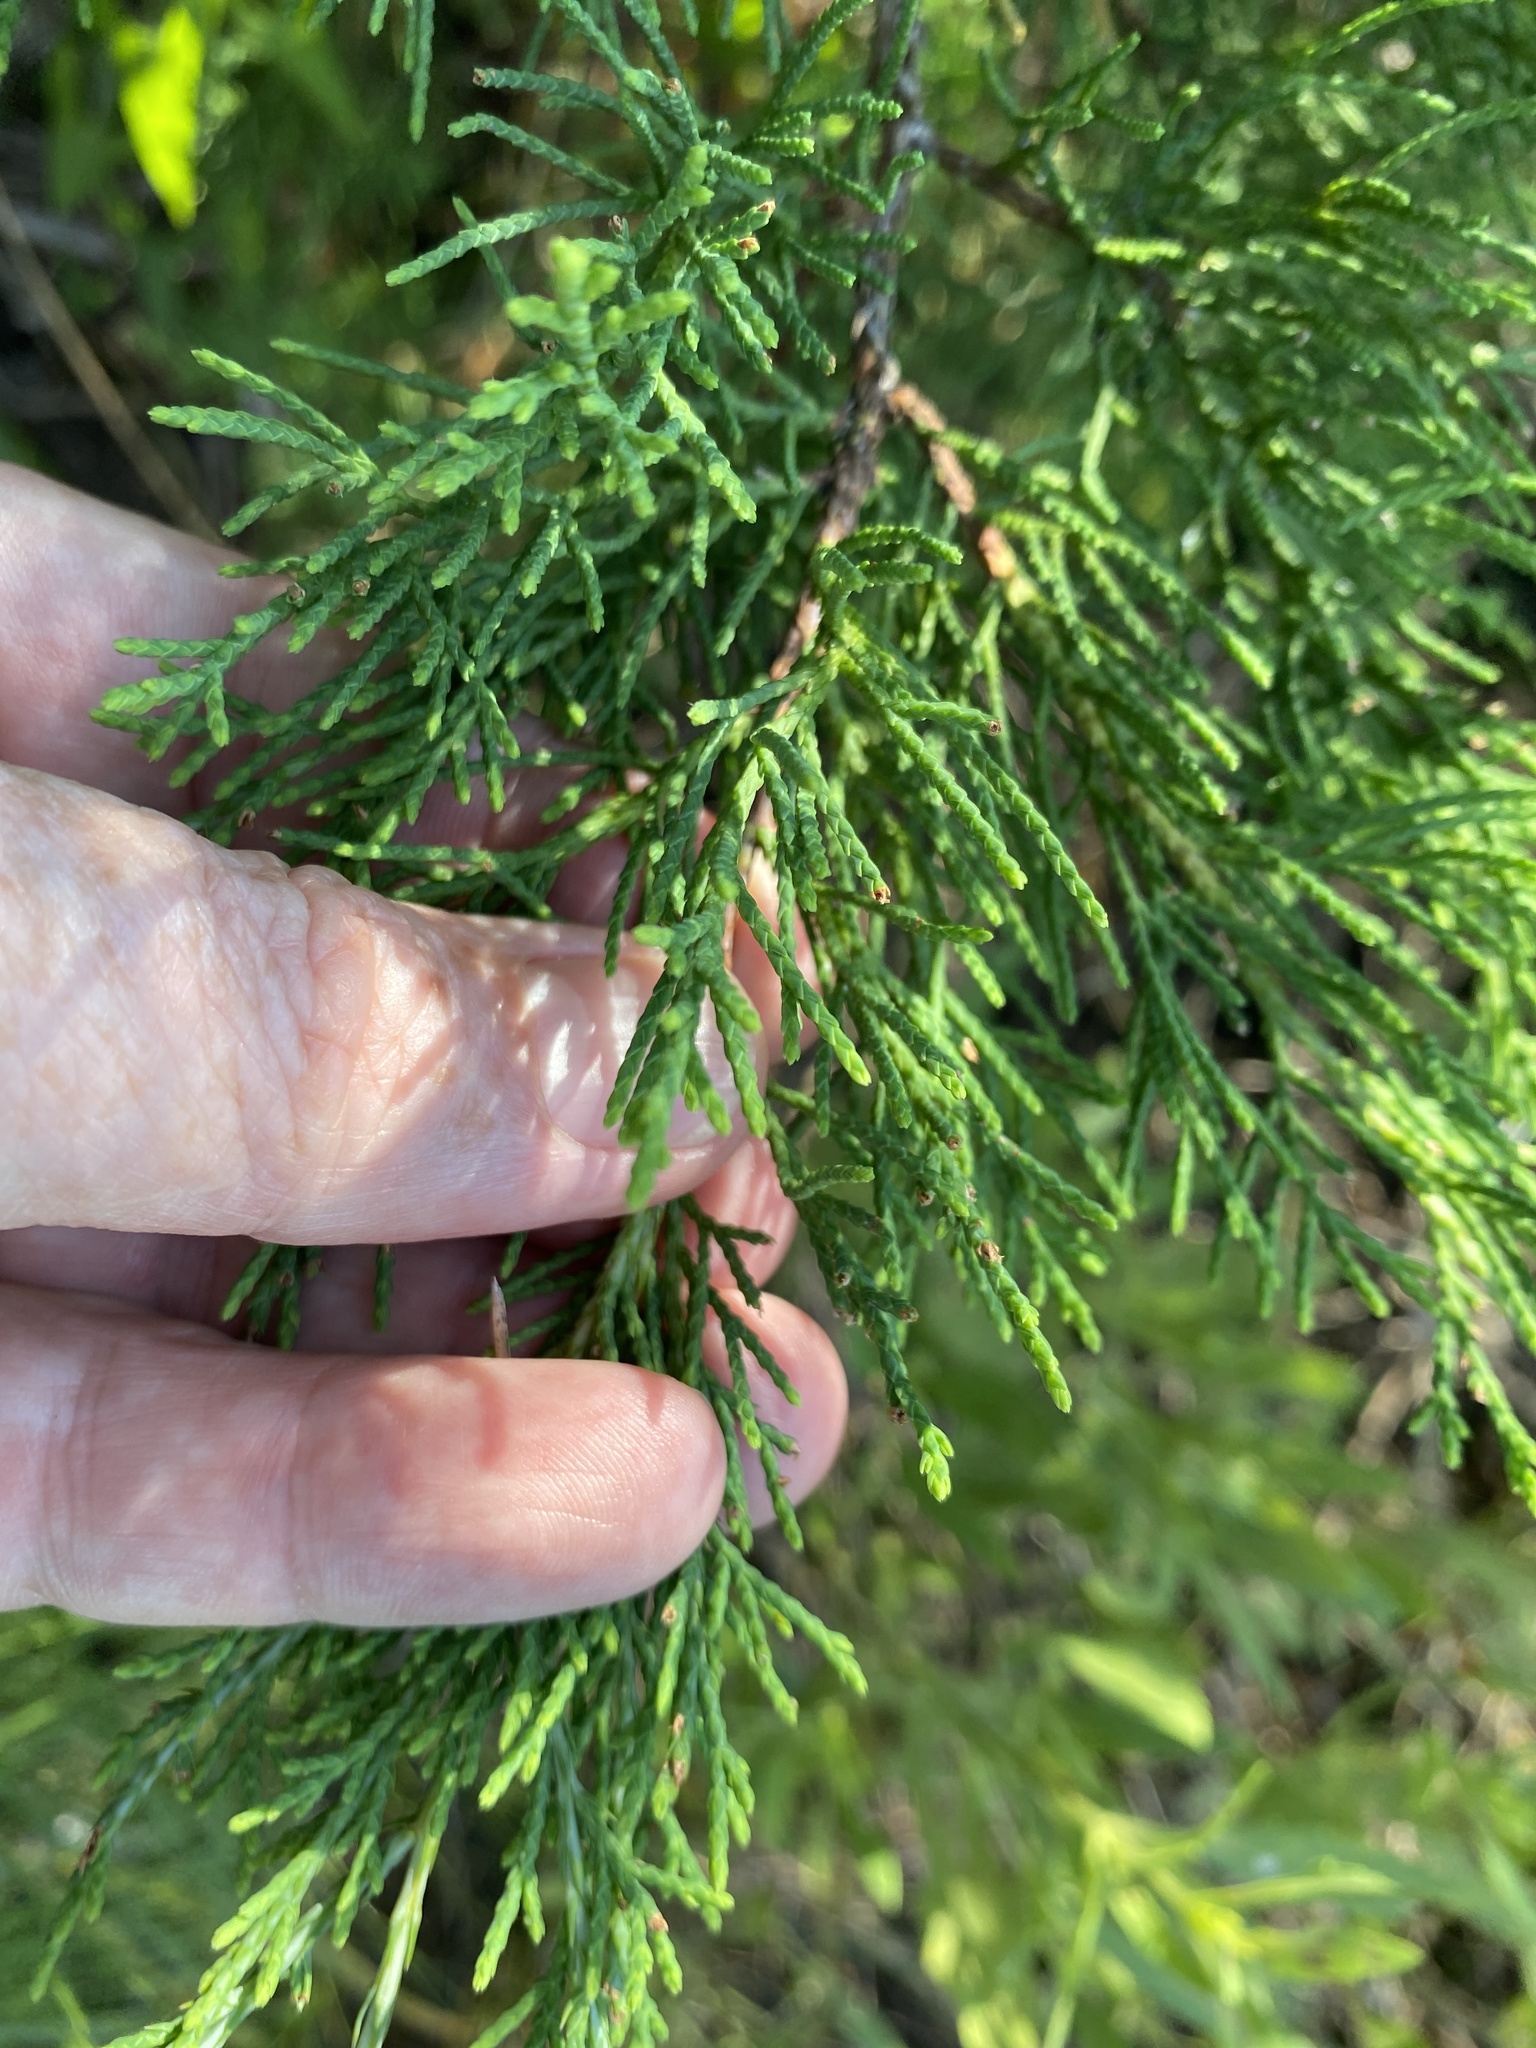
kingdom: Plantae
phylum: Tracheophyta
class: Pinopsida
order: Pinales
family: Cupressaceae
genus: Juniperus
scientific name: Juniperus virginiana
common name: Red juniper
